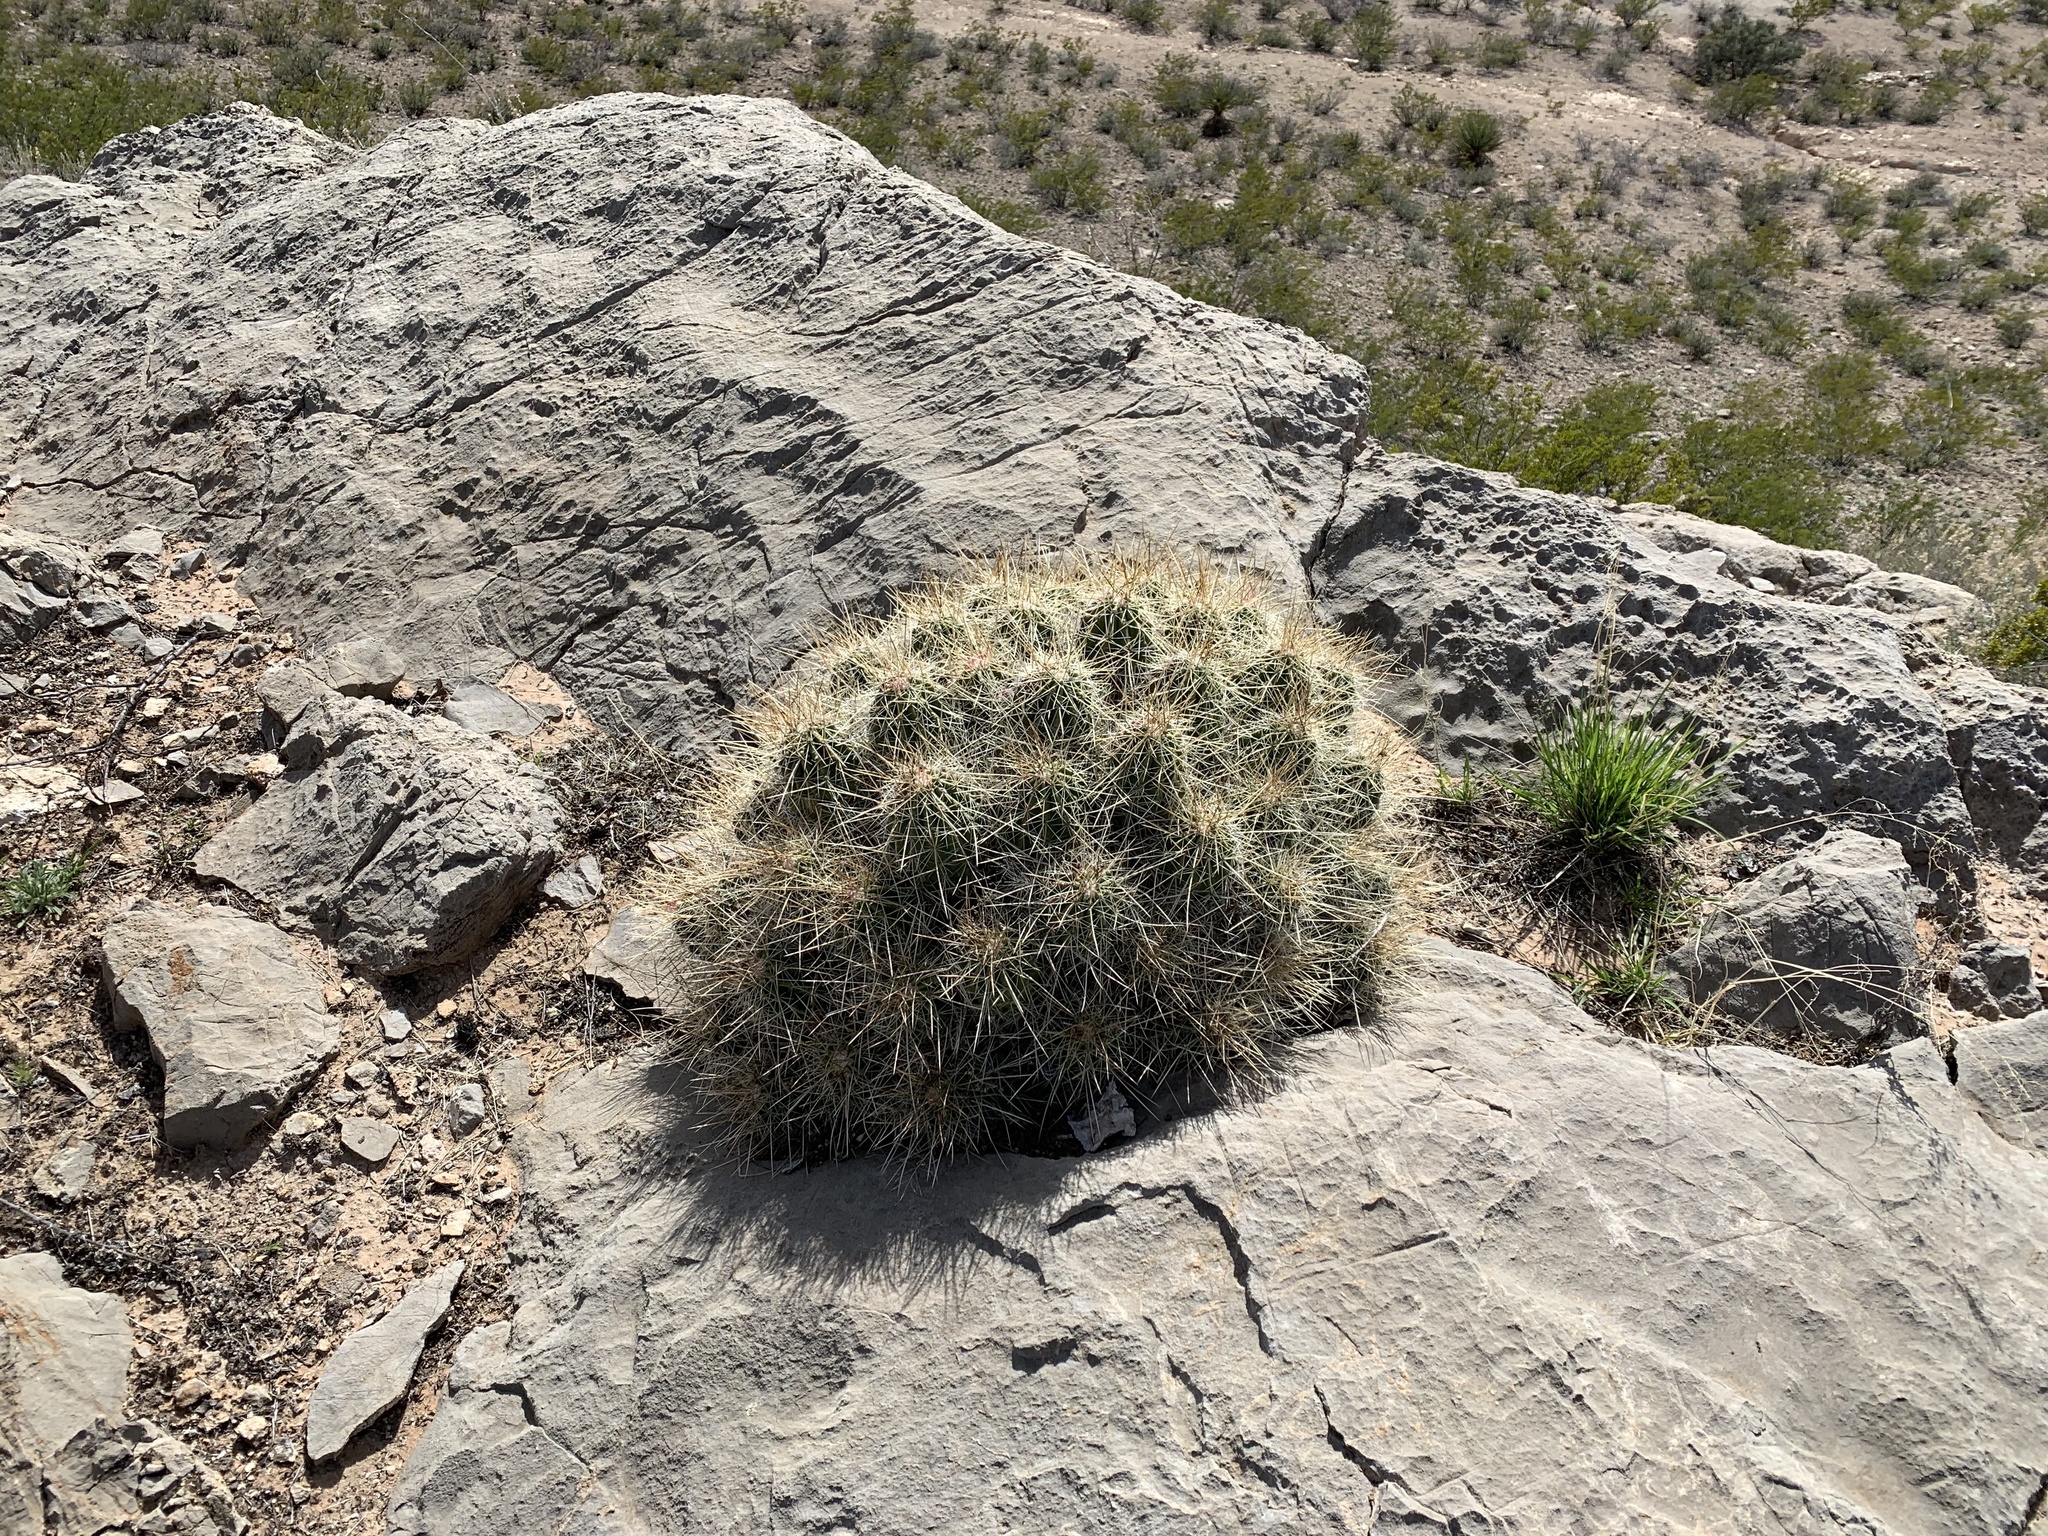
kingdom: Plantae
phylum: Tracheophyta
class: Magnoliopsida
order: Caryophyllales
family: Cactaceae
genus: Echinocereus
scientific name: Echinocereus stramineus
